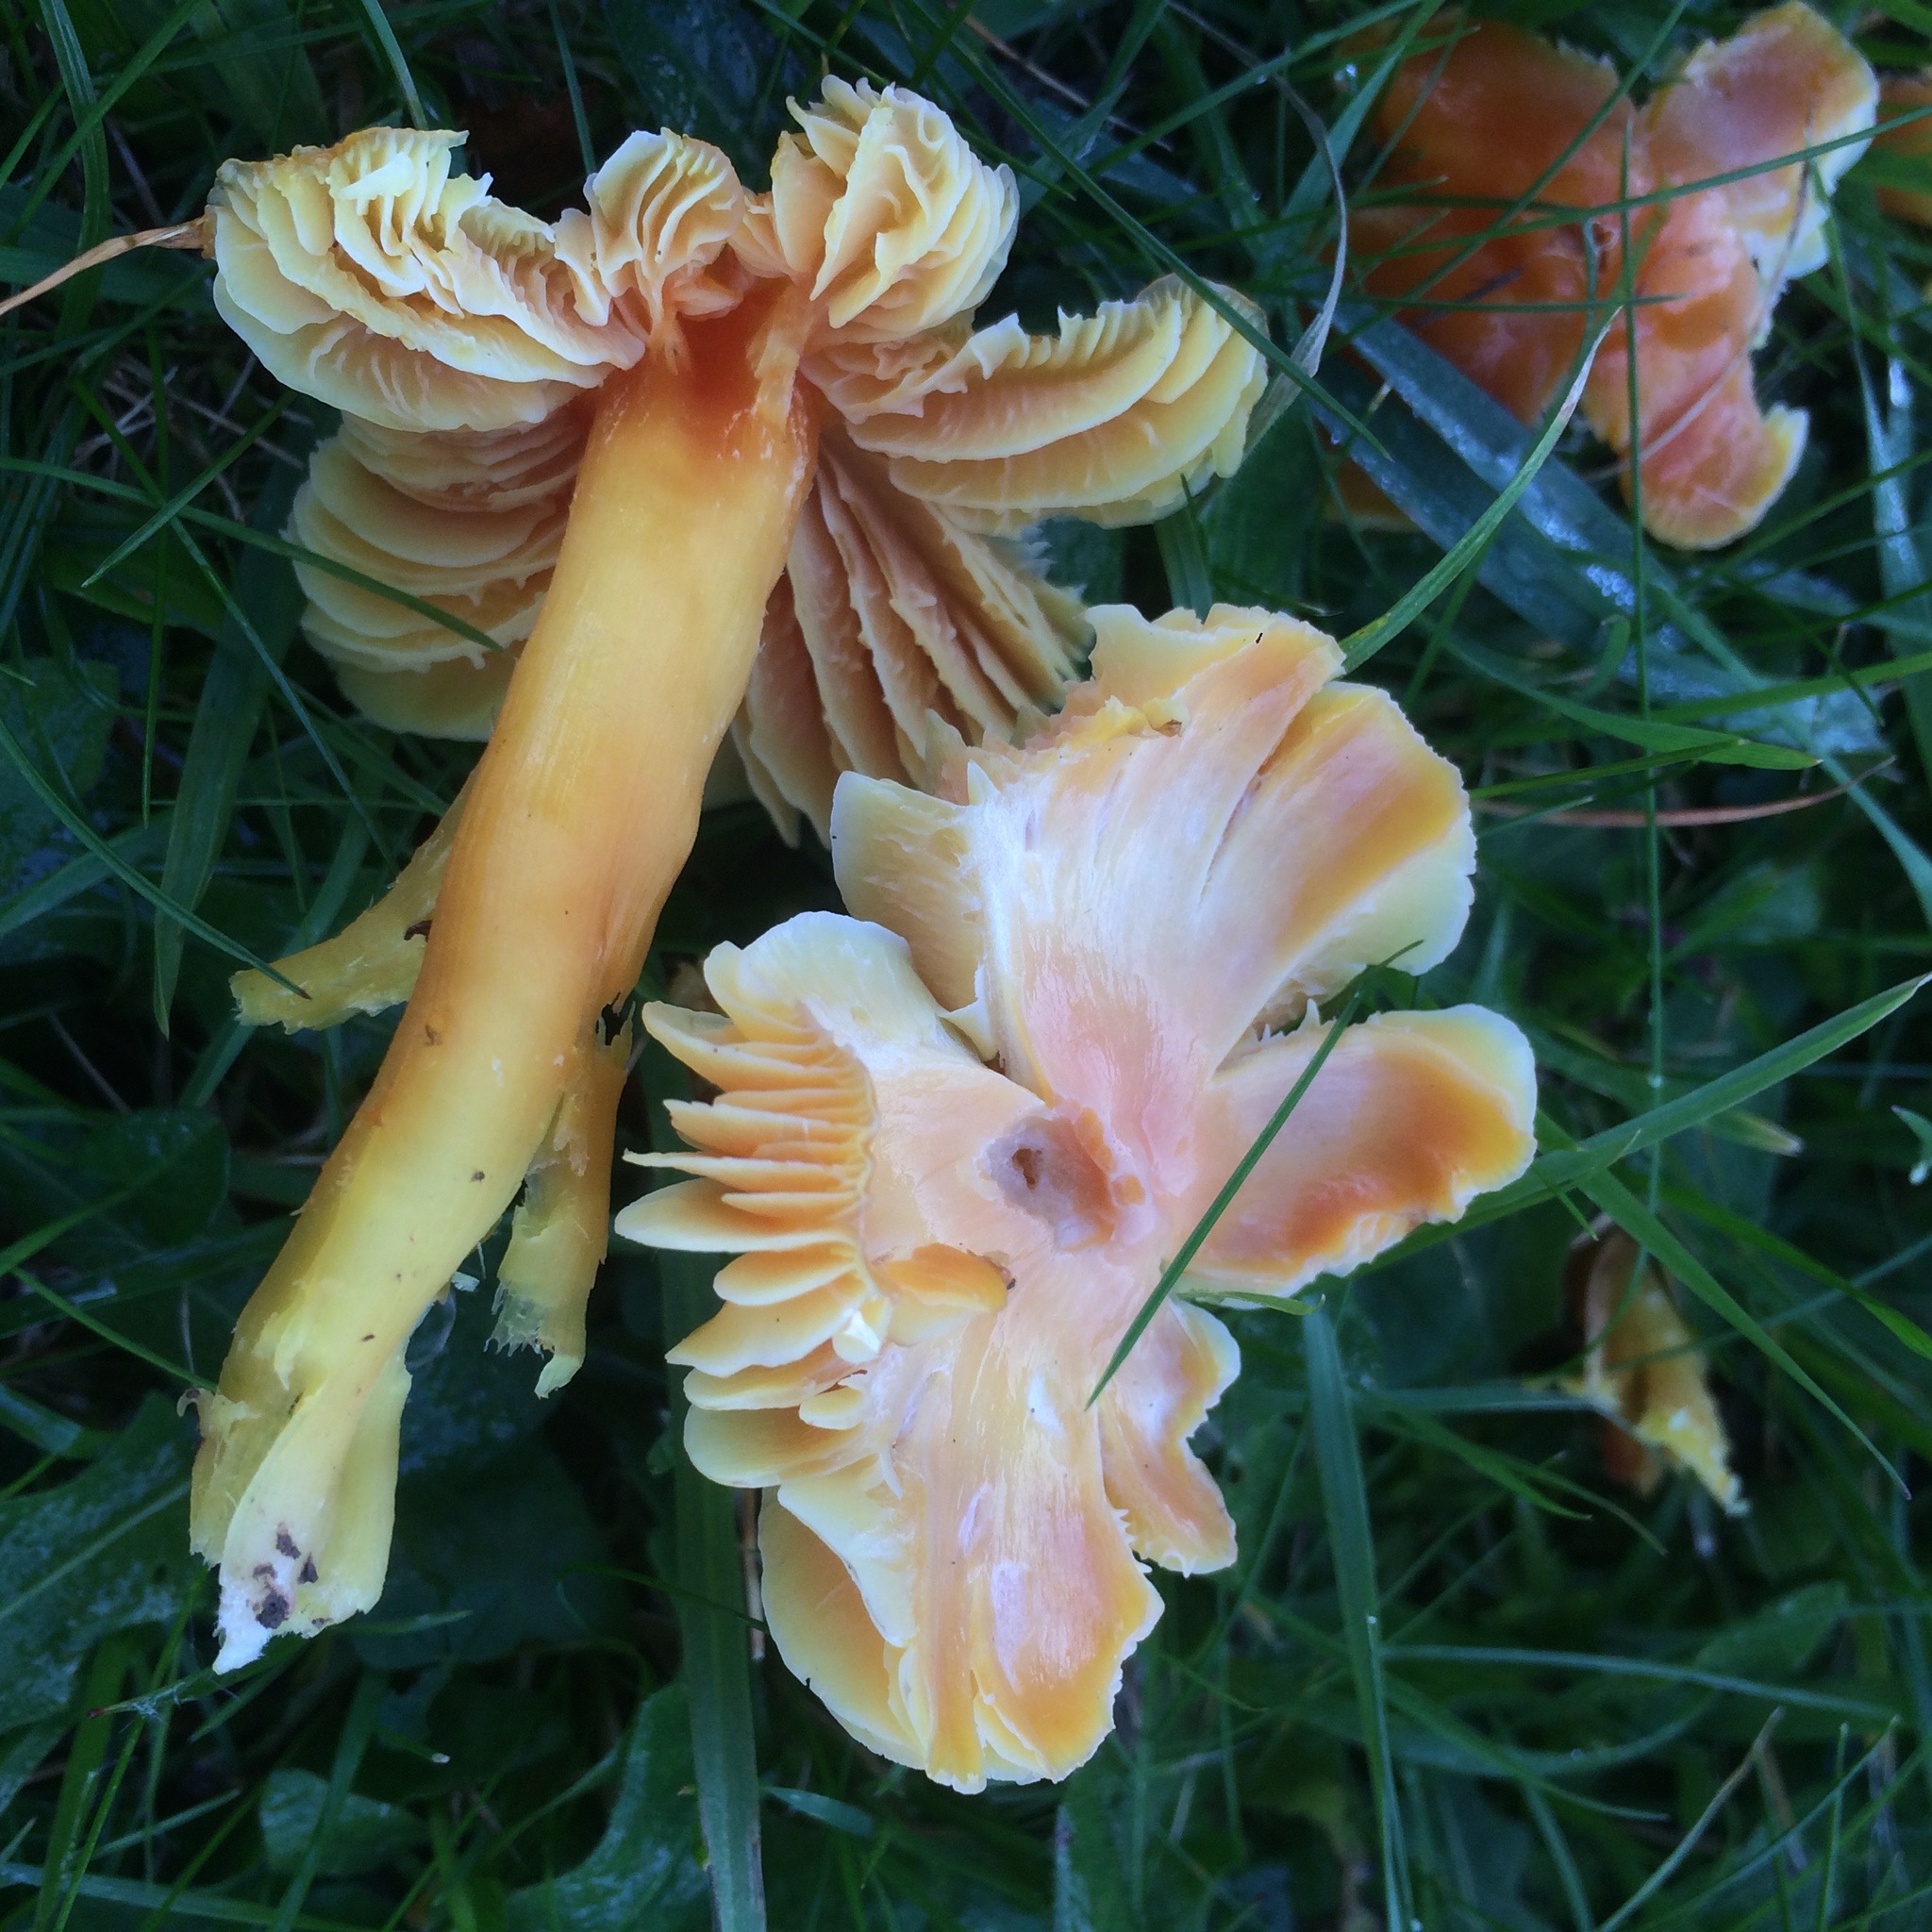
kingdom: Fungi
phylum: Basidiomycota
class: Agaricomycetes
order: Agaricales
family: Hygrophoraceae
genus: Hygrocybe
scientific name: Hygrocybe quieta
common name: Oily waxcap
